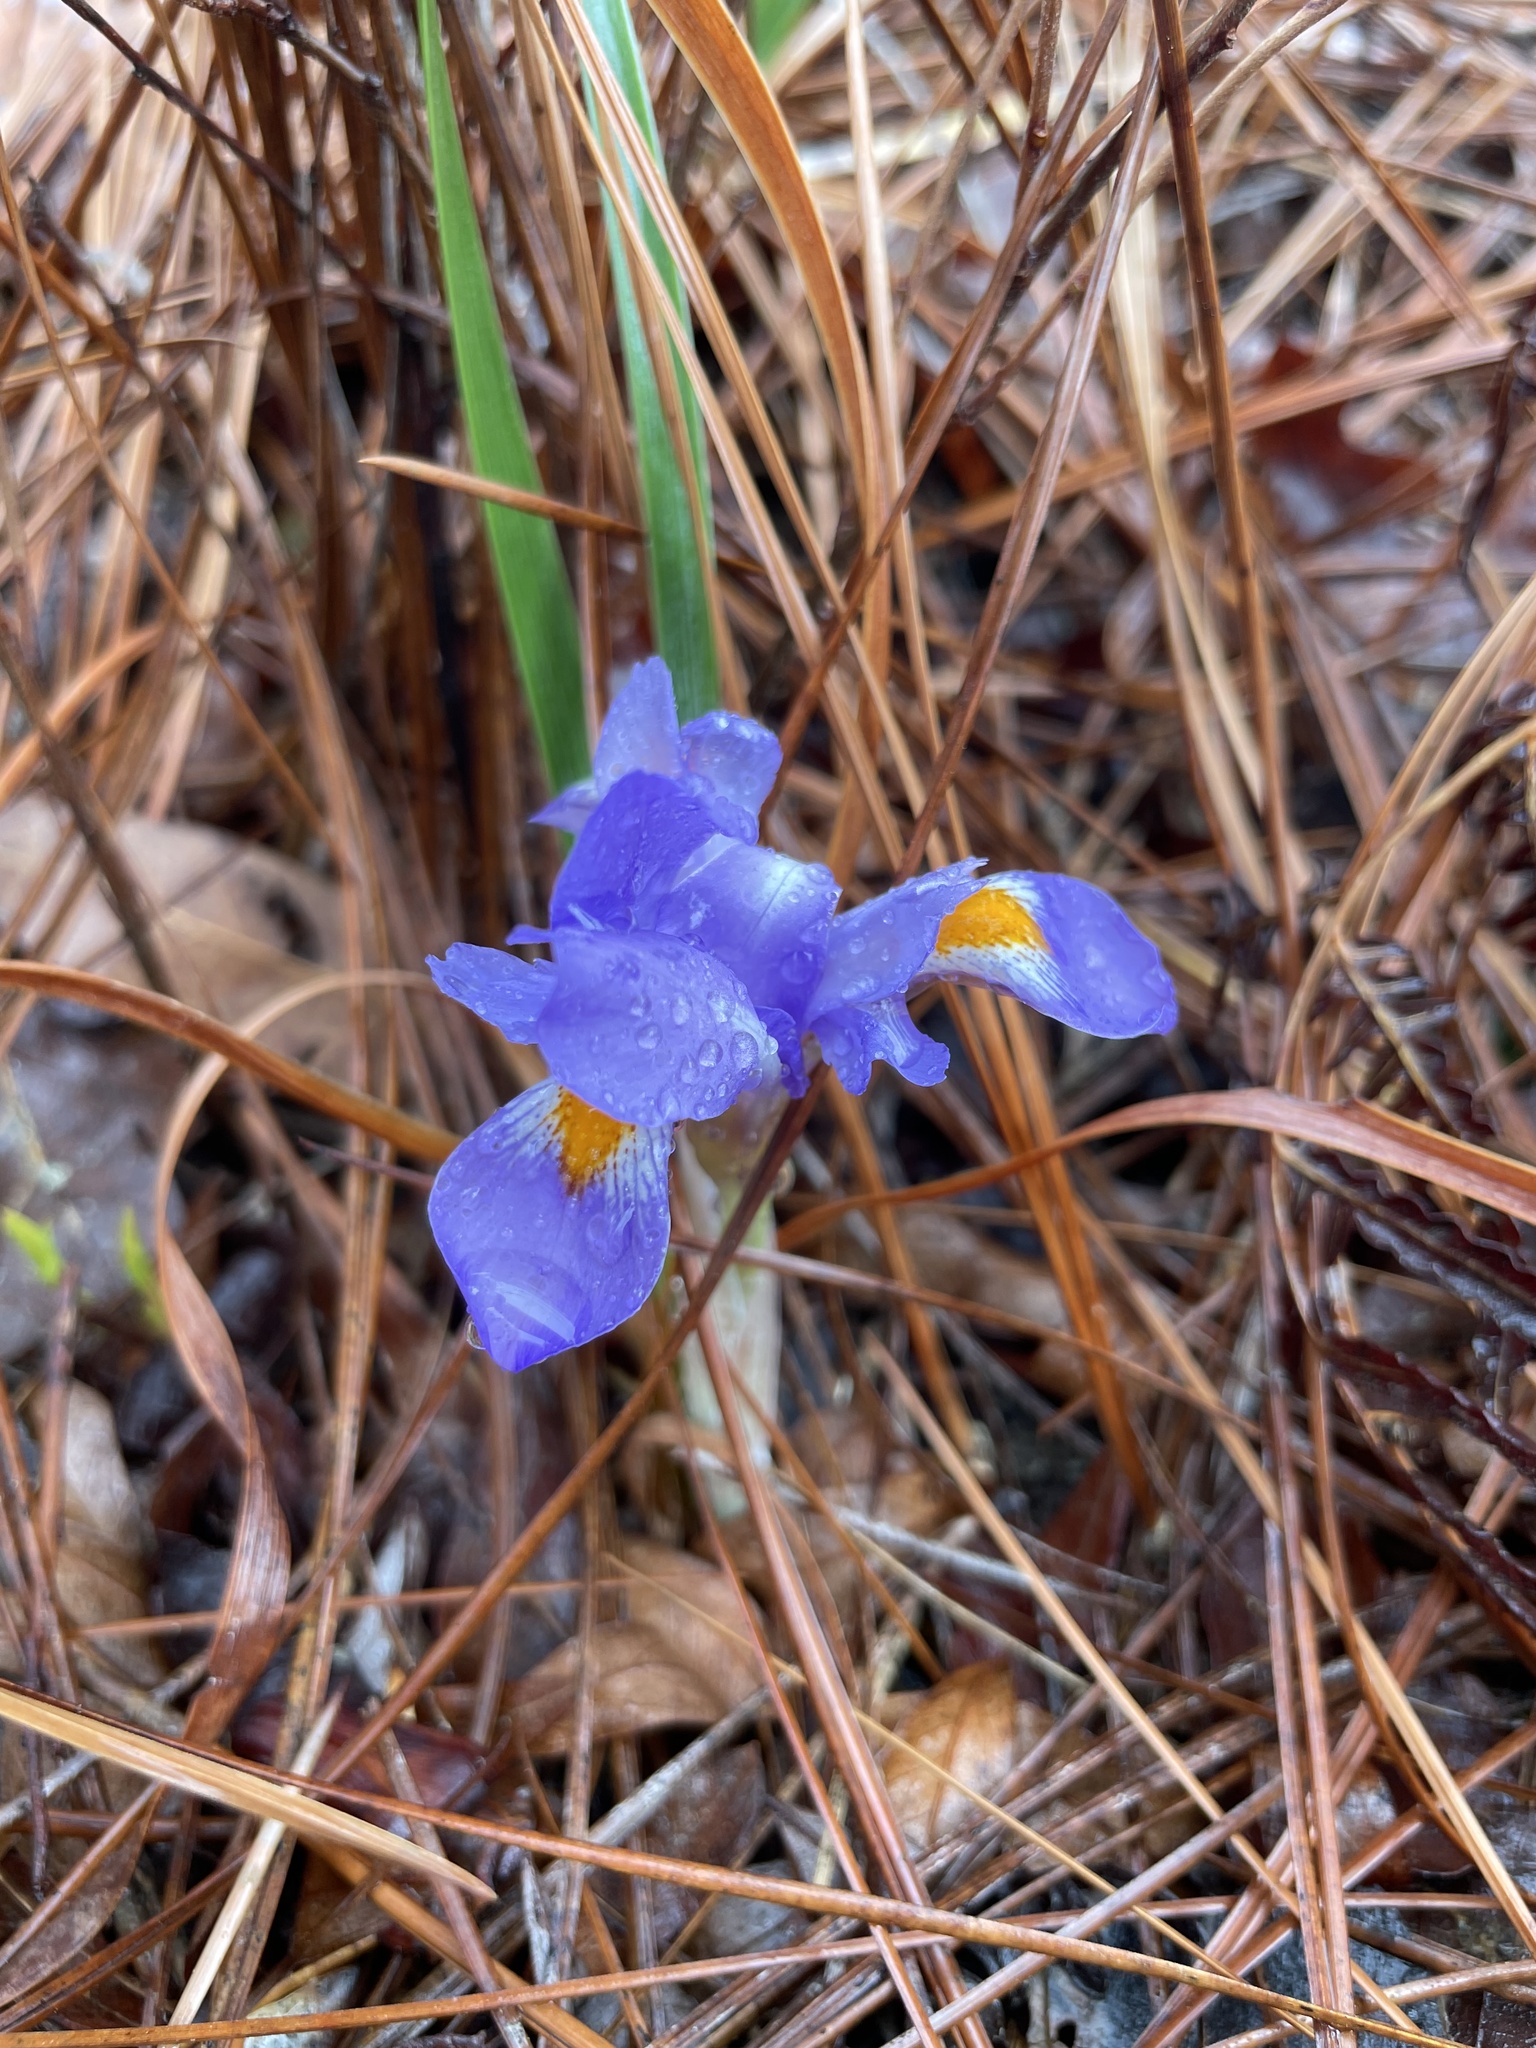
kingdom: Plantae
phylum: Tracheophyta
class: Liliopsida
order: Asparagales
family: Iridaceae
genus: Iris
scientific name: Iris verna
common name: Dwarf iris
